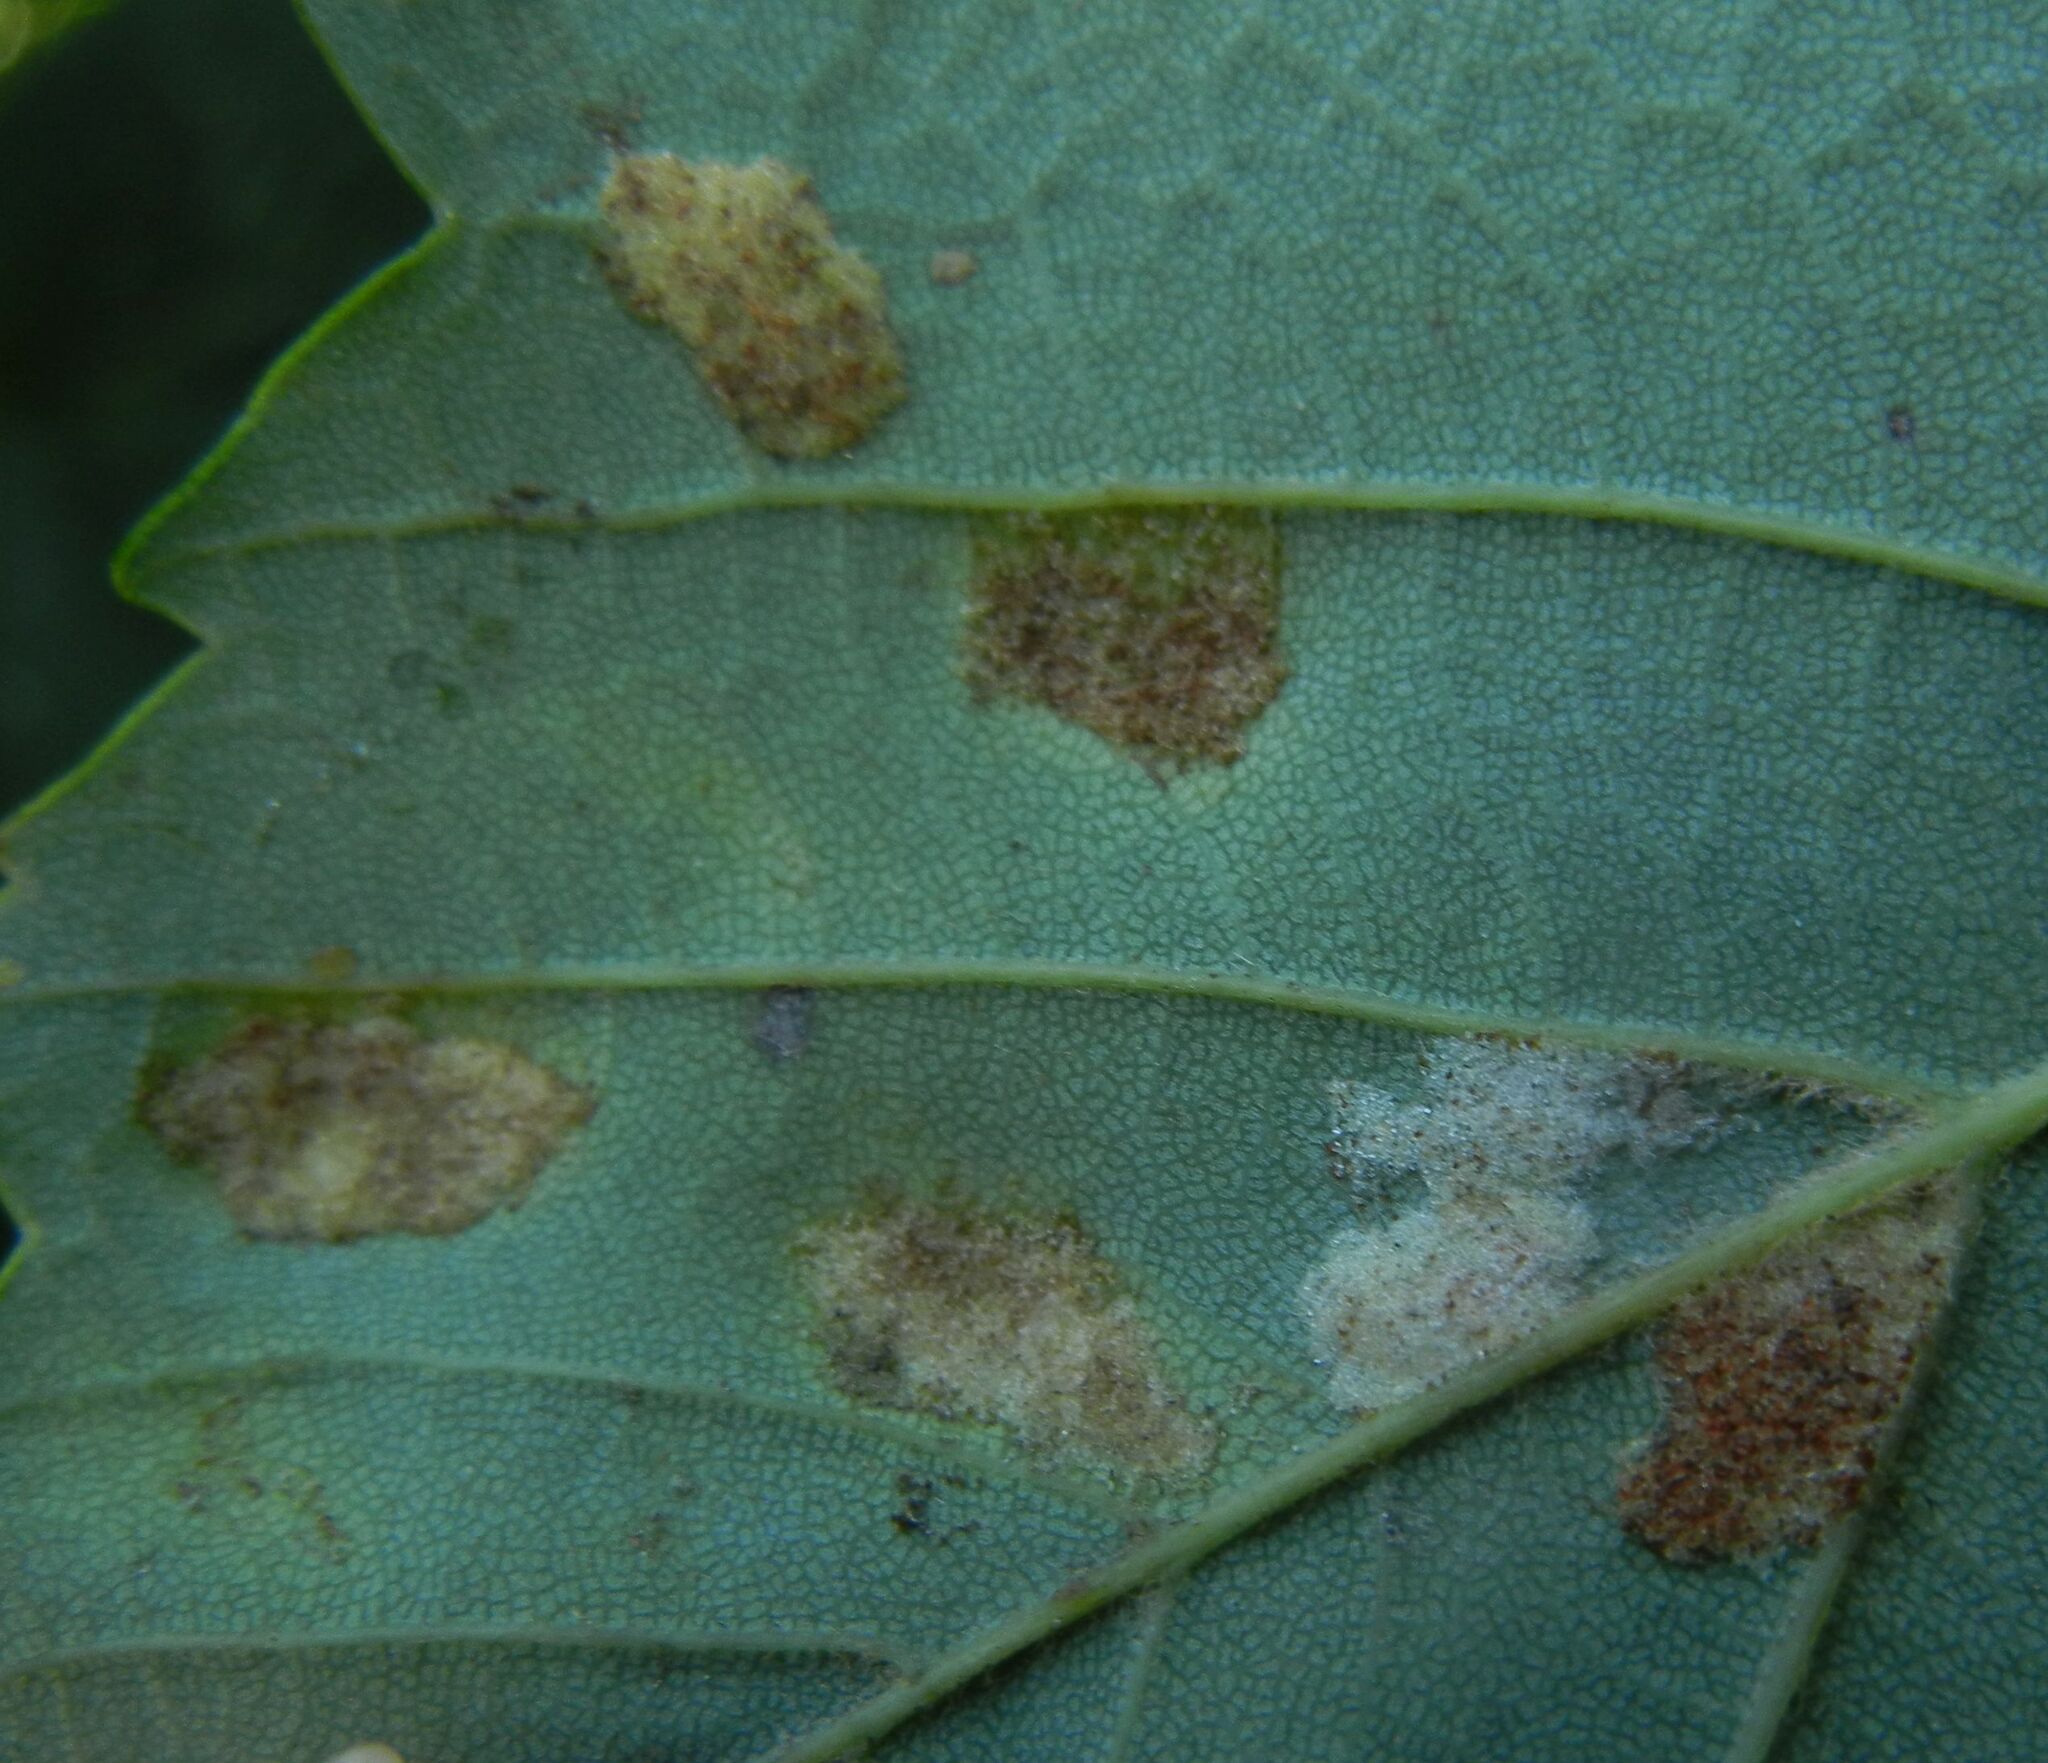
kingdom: Animalia
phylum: Arthropoda
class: Arachnida
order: Trombidiformes
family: Eriophyidae
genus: Aceria
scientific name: Aceria pseudoplatani
